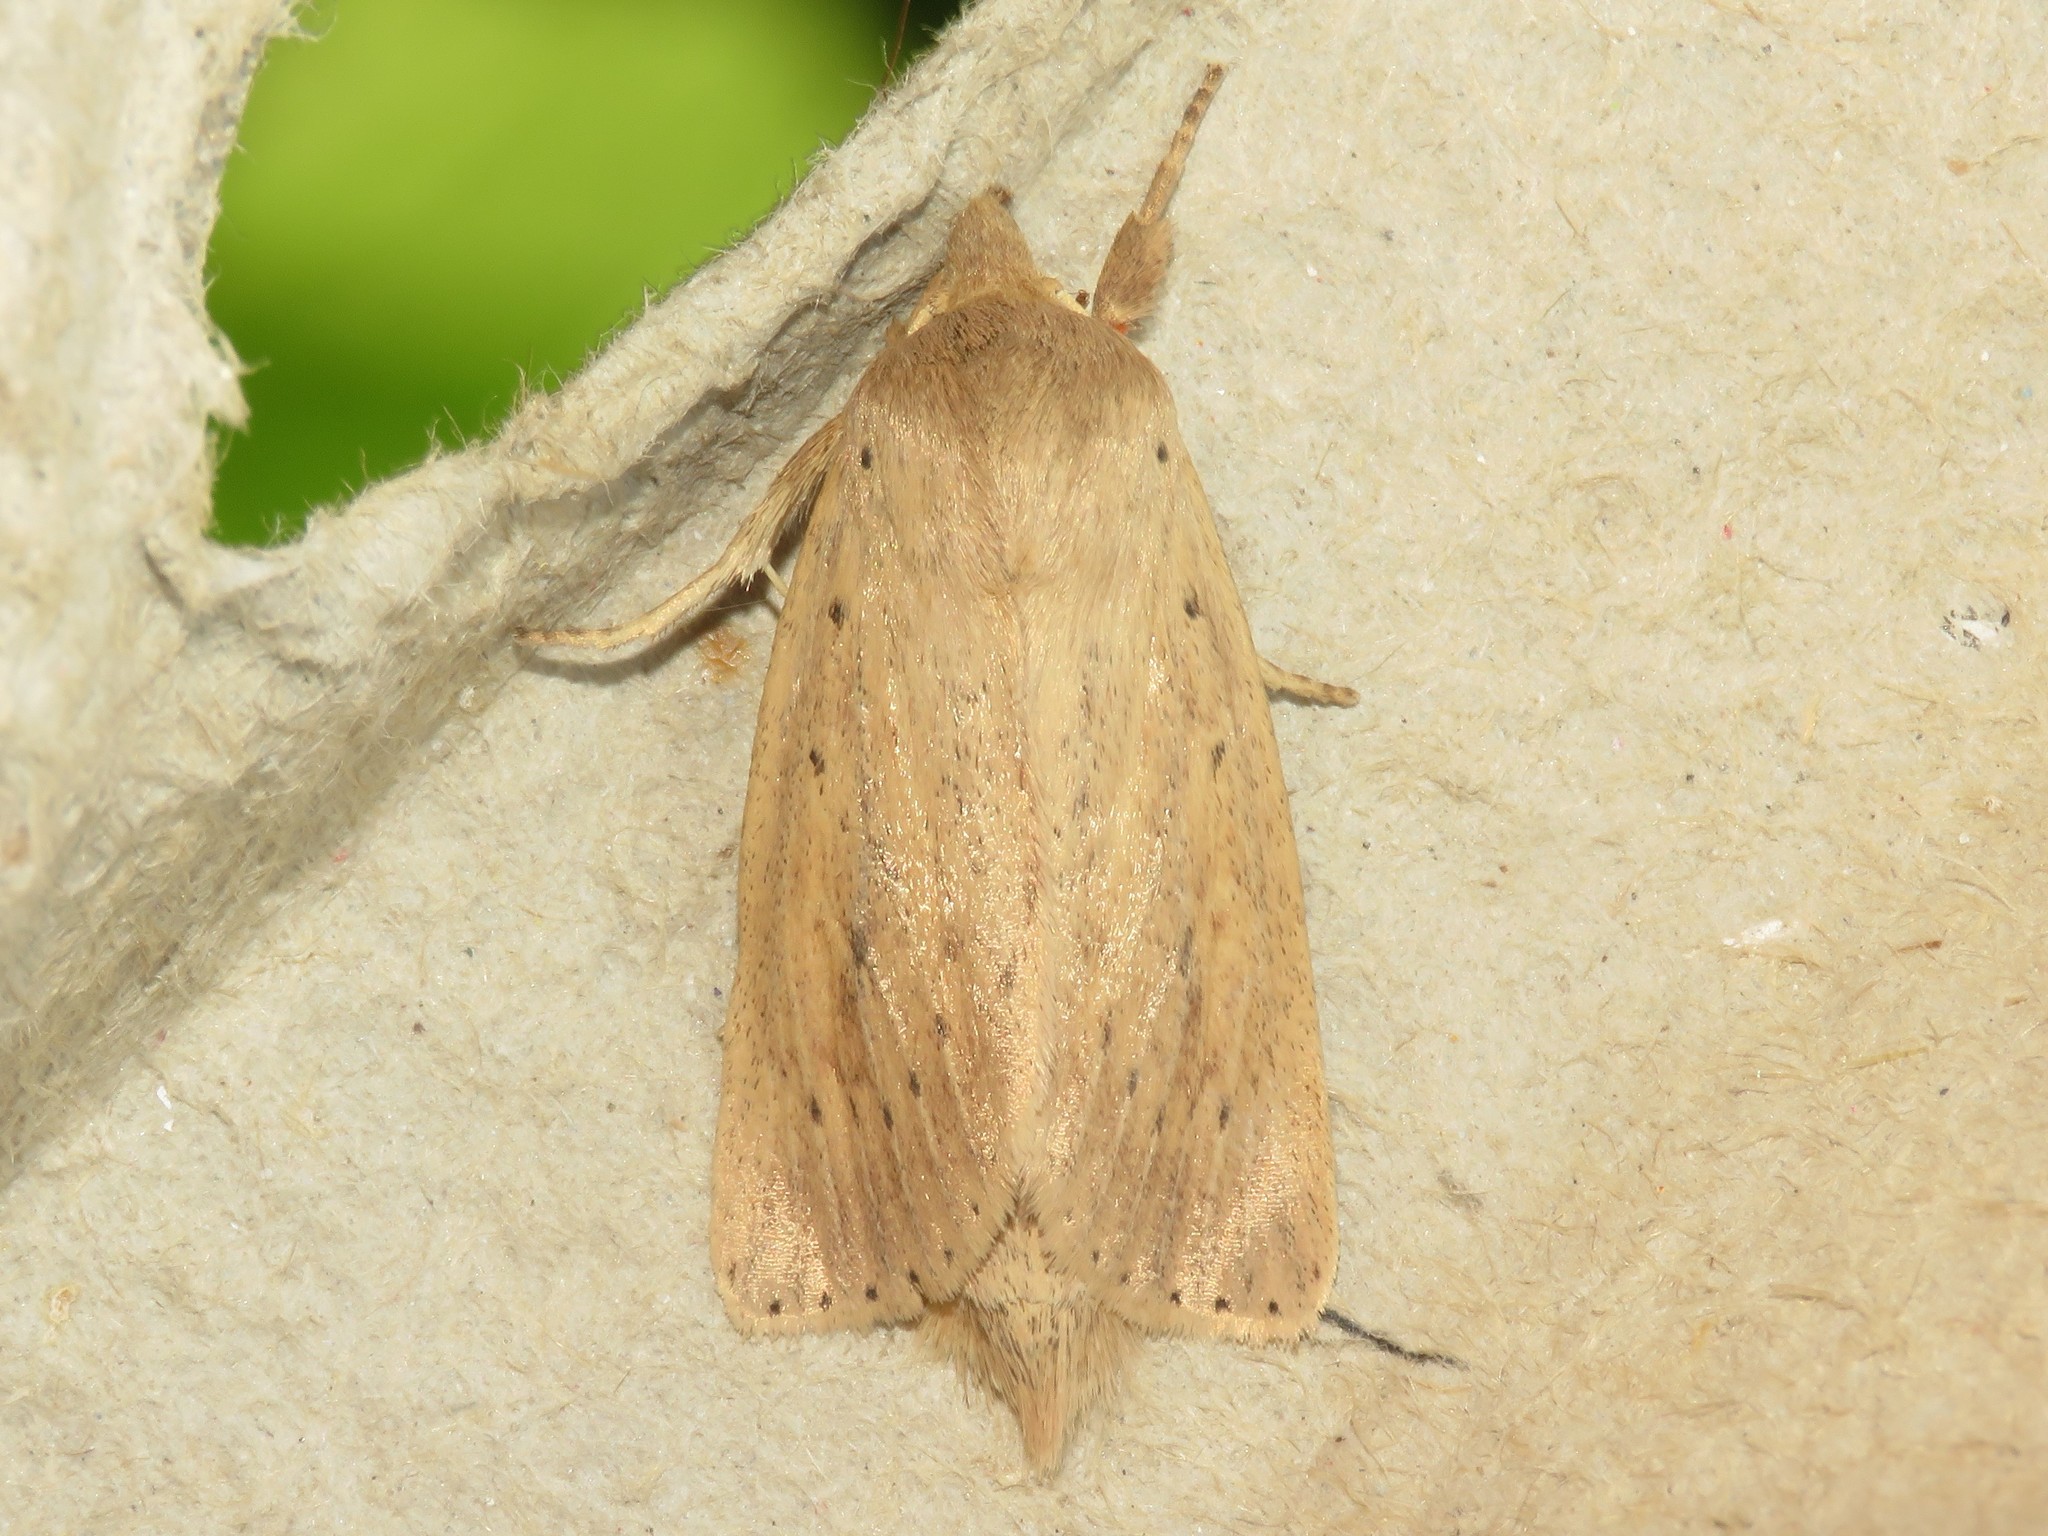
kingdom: Animalia
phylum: Arthropoda
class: Insecta
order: Lepidoptera
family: Noctuidae
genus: Globia
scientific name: Globia oblonga
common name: Oblong sedge borer moth
